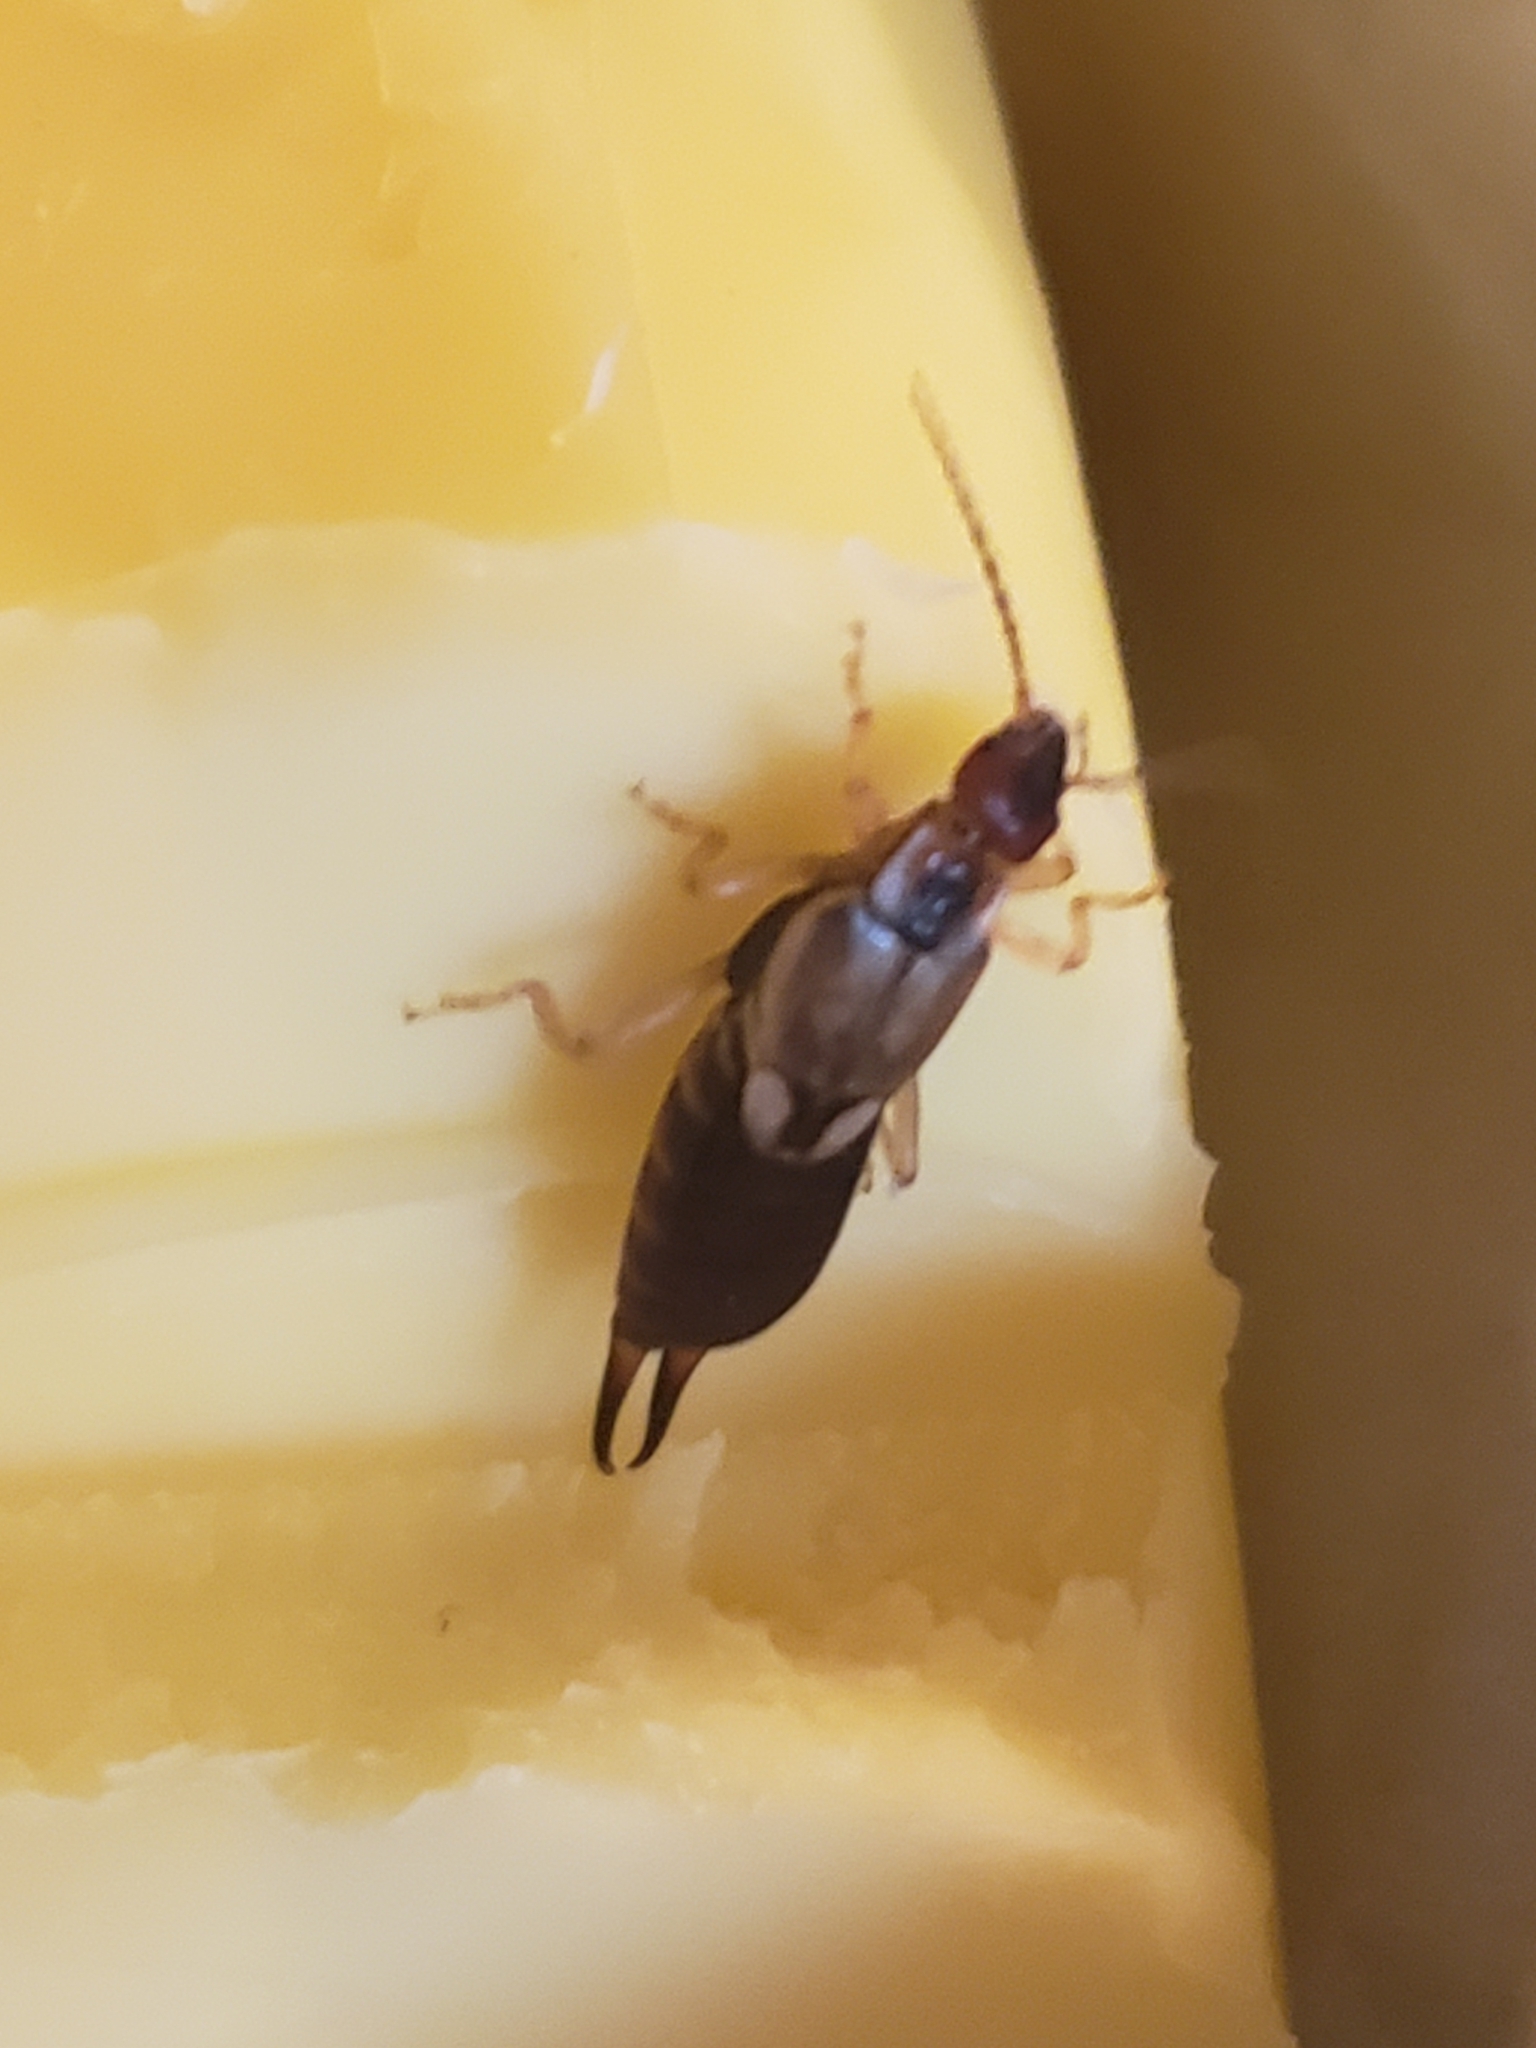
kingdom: Animalia
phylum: Arthropoda
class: Insecta
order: Dermaptera
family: Forficulidae
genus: Forficula
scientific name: Forficula
